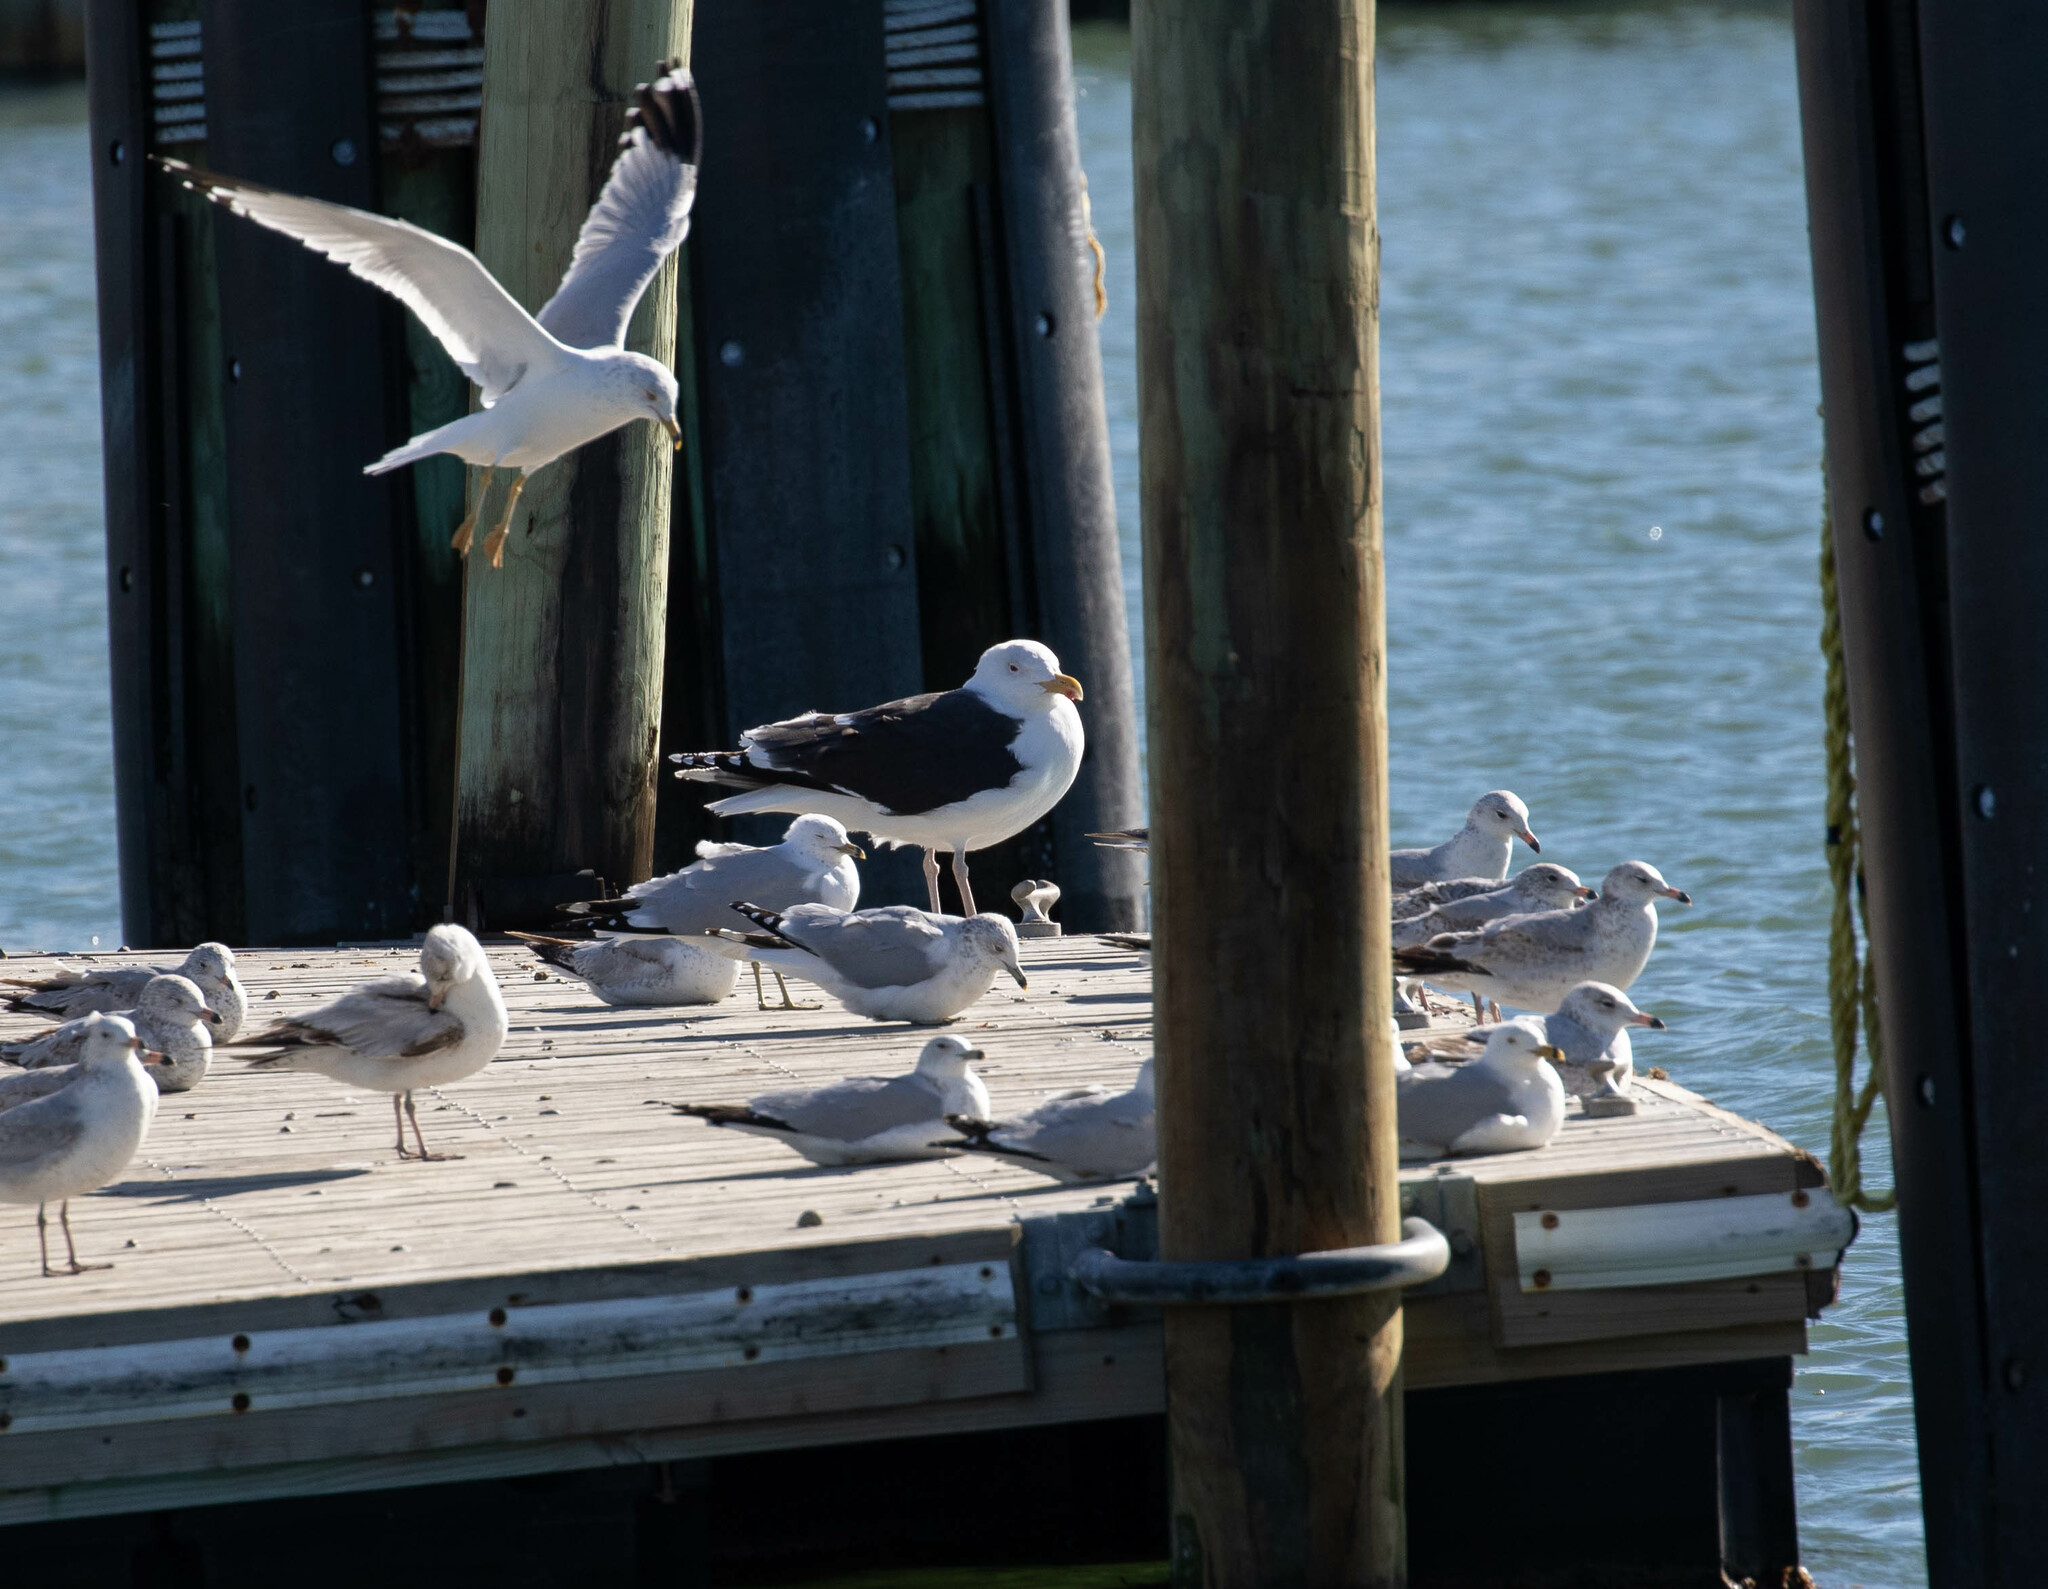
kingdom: Animalia
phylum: Chordata
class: Aves
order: Charadriiformes
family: Laridae
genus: Larus
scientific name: Larus marinus
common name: Great black-backed gull
